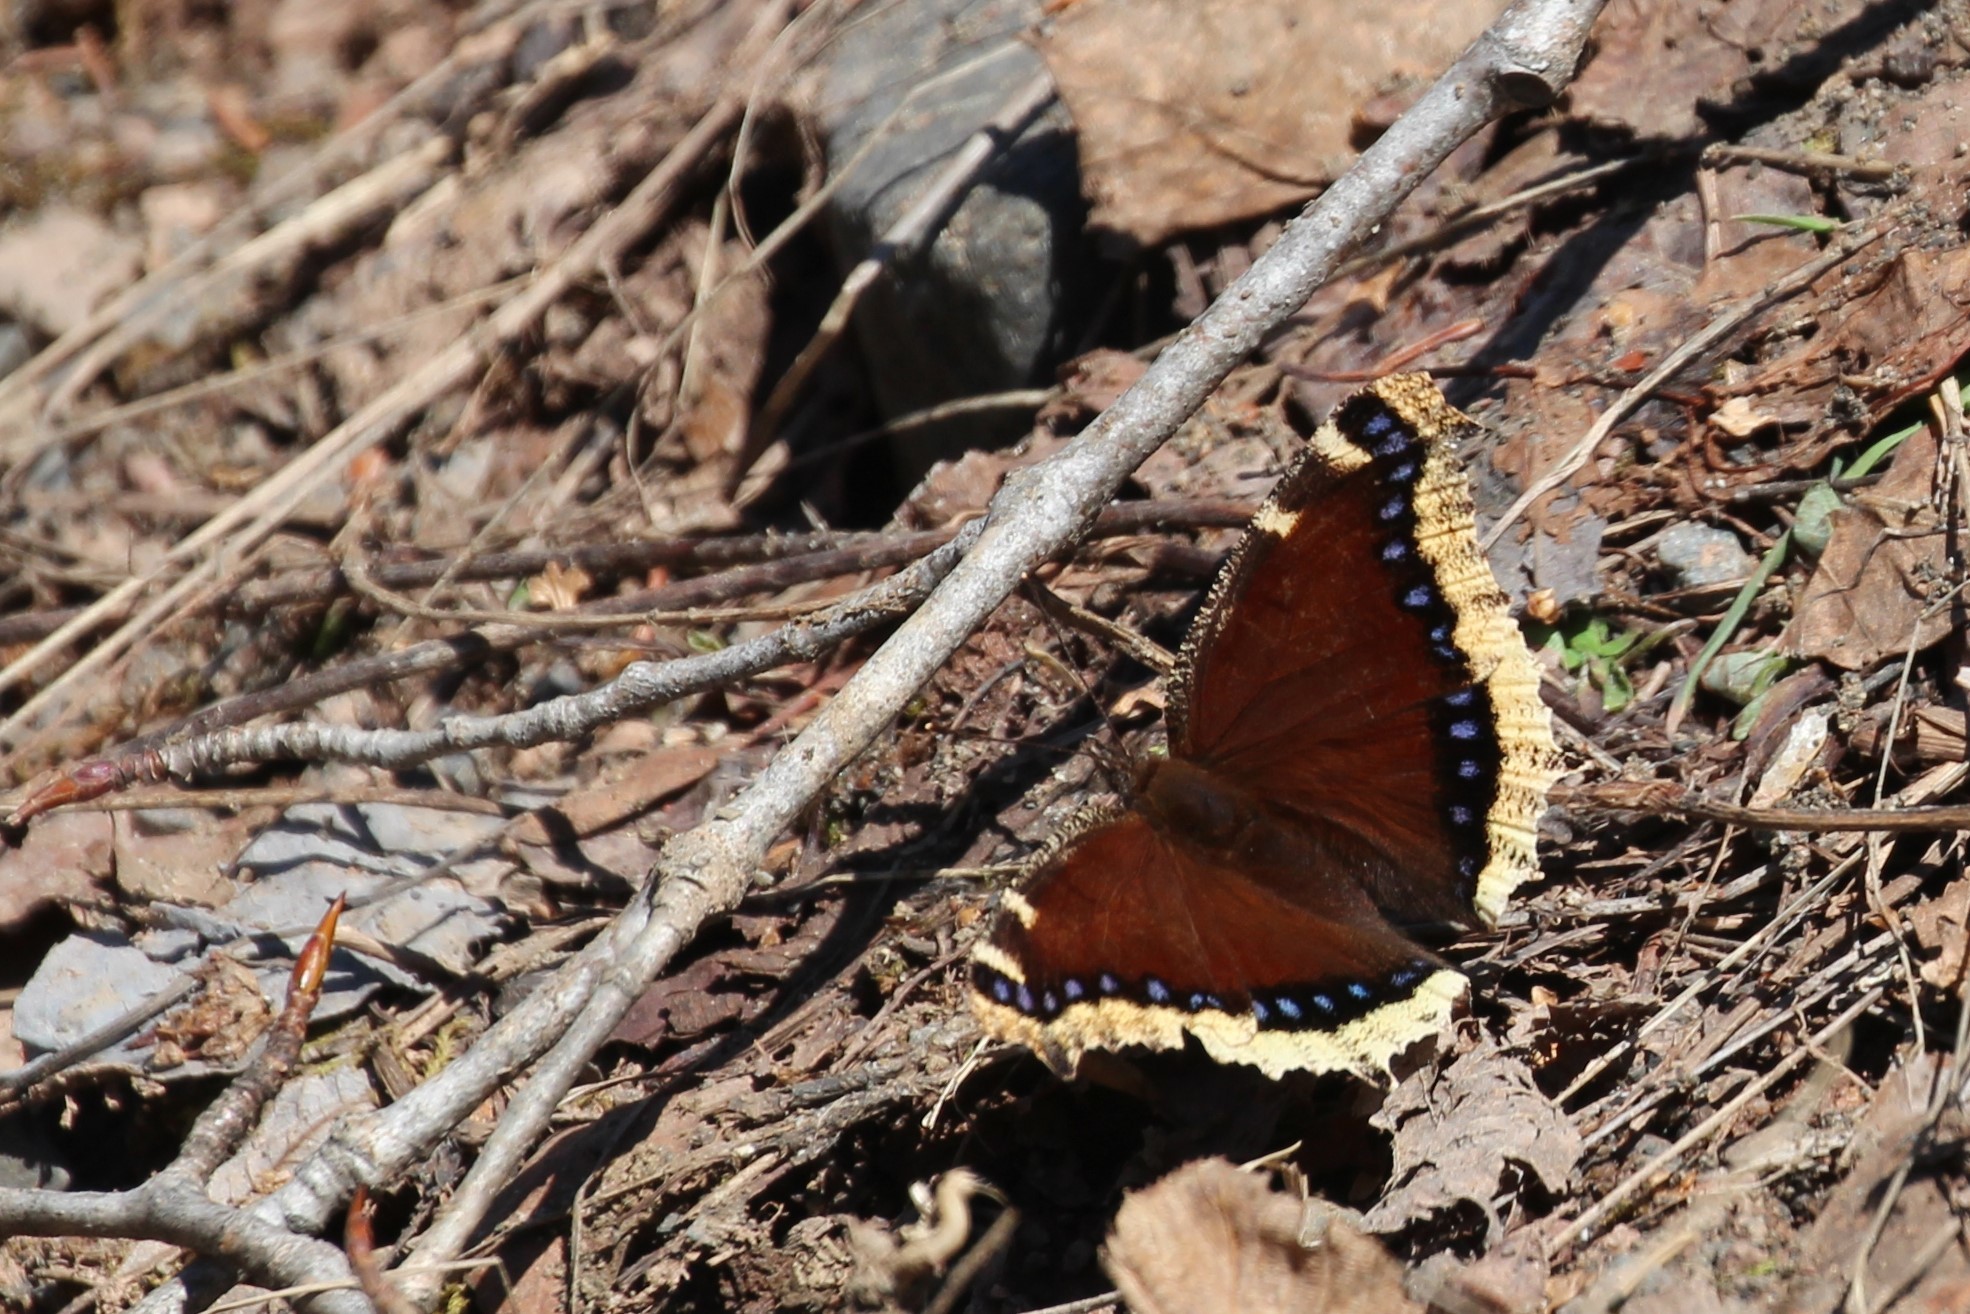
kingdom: Animalia
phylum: Arthropoda
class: Insecta
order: Lepidoptera
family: Nymphalidae
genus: Nymphalis
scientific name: Nymphalis antiopa
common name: Camberwell beauty
